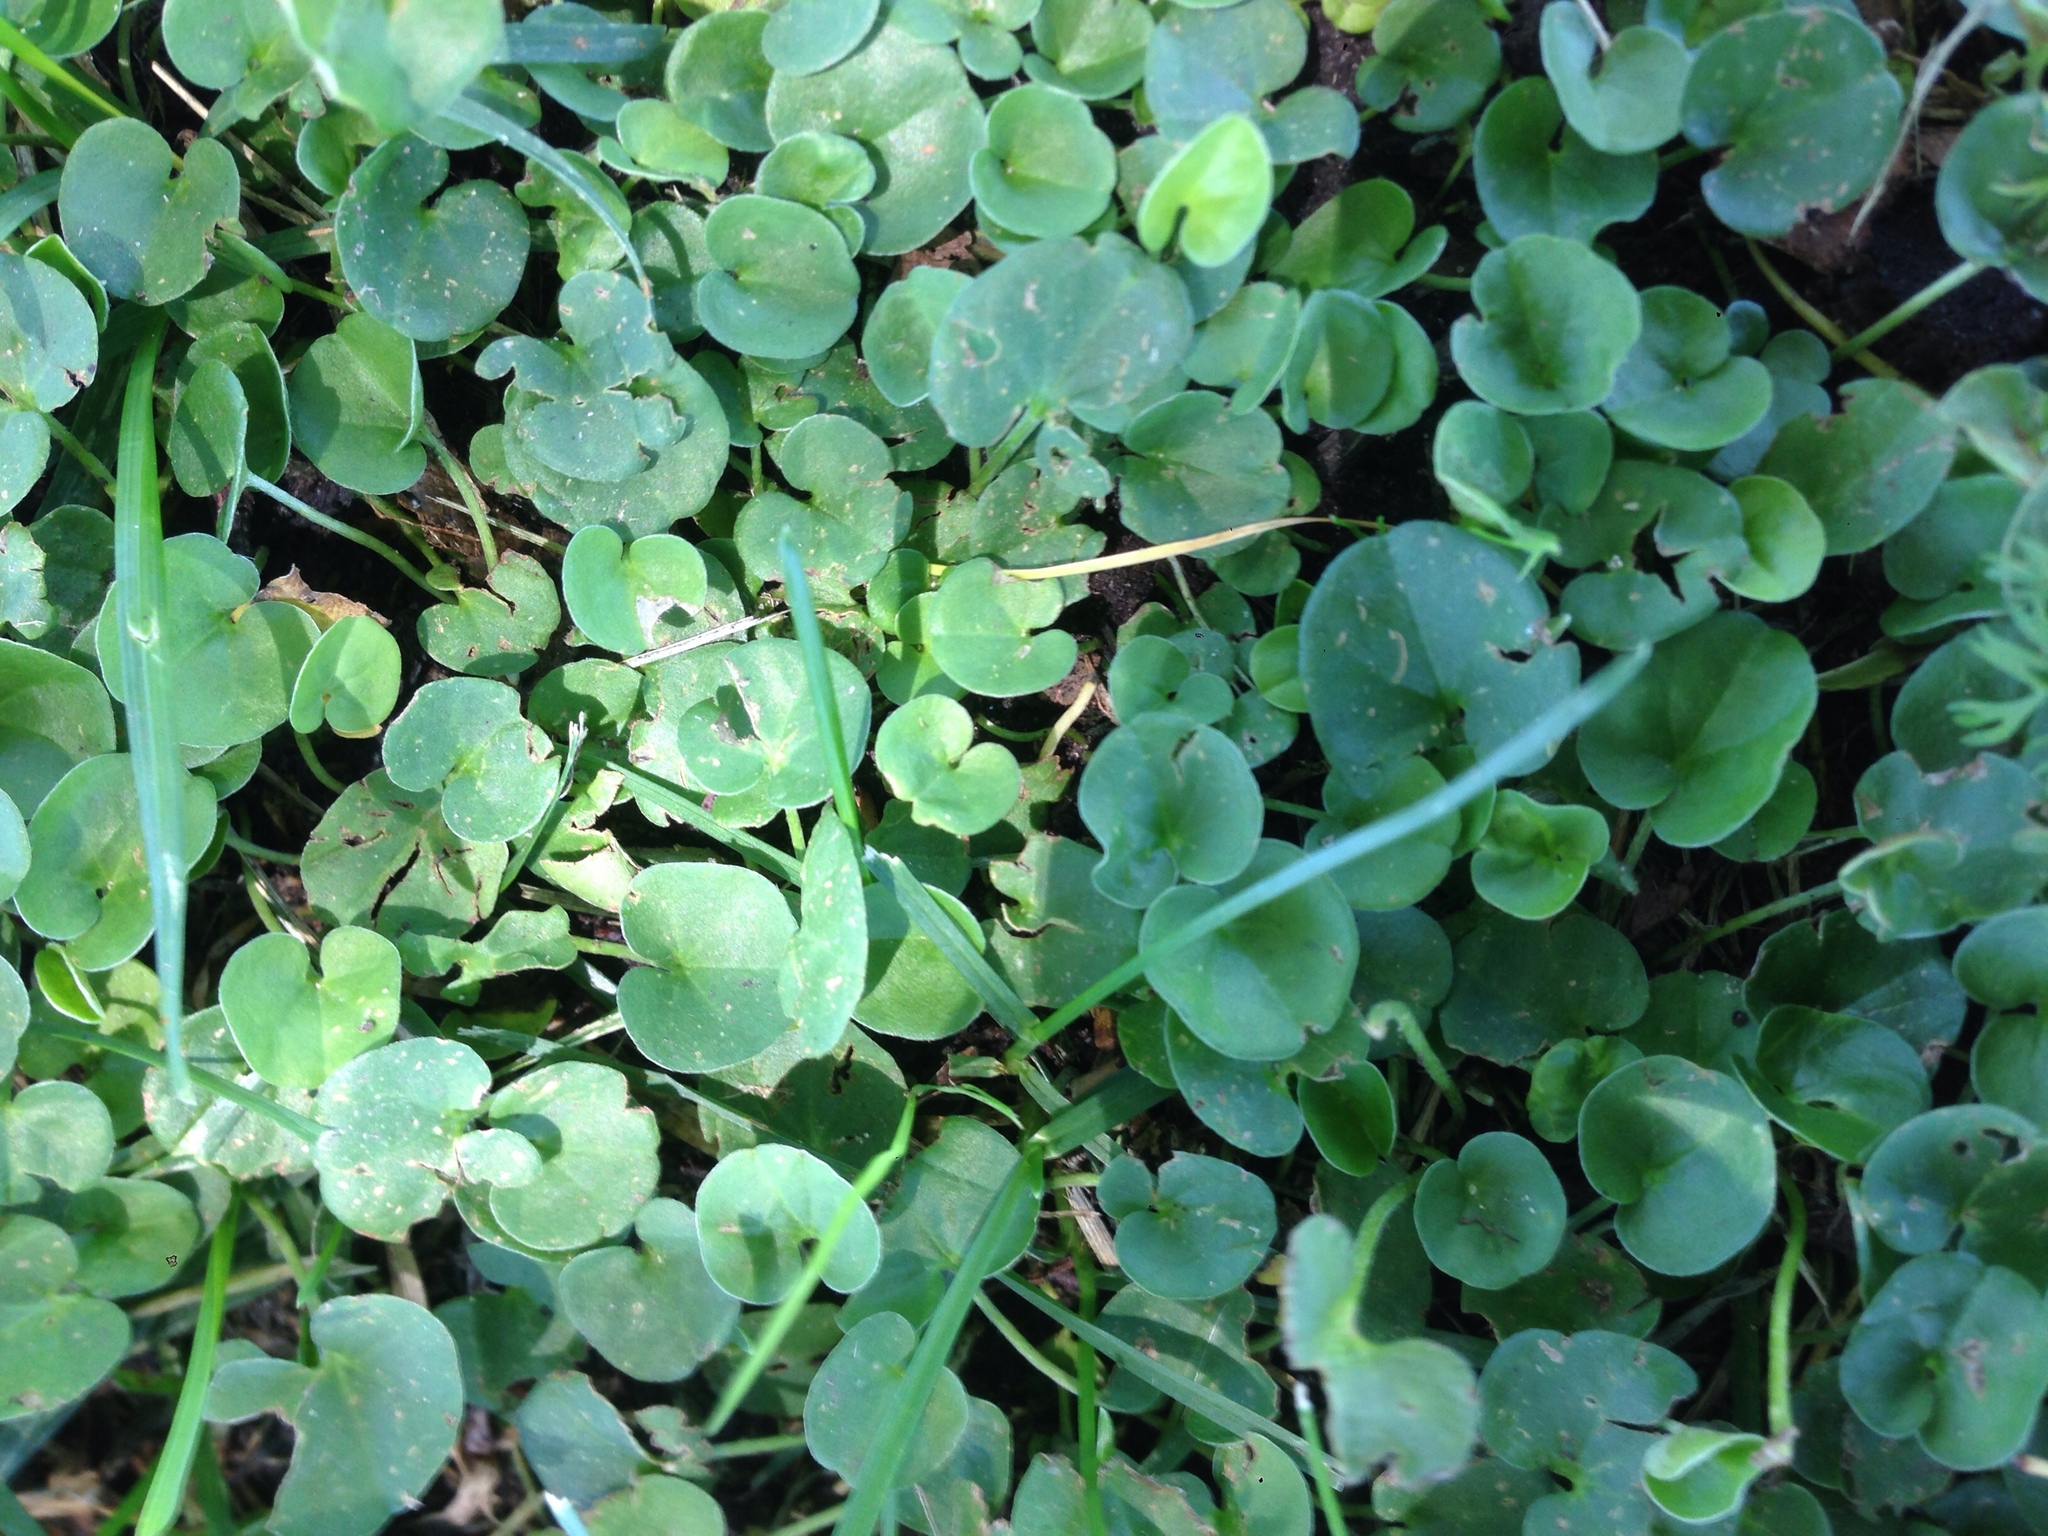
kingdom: Plantae
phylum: Tracheophyta
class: Magnoliopsida
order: Solanales
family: Convolvulaceae
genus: Dichondra
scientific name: Dichondra micrantha
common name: Kidneyweed
